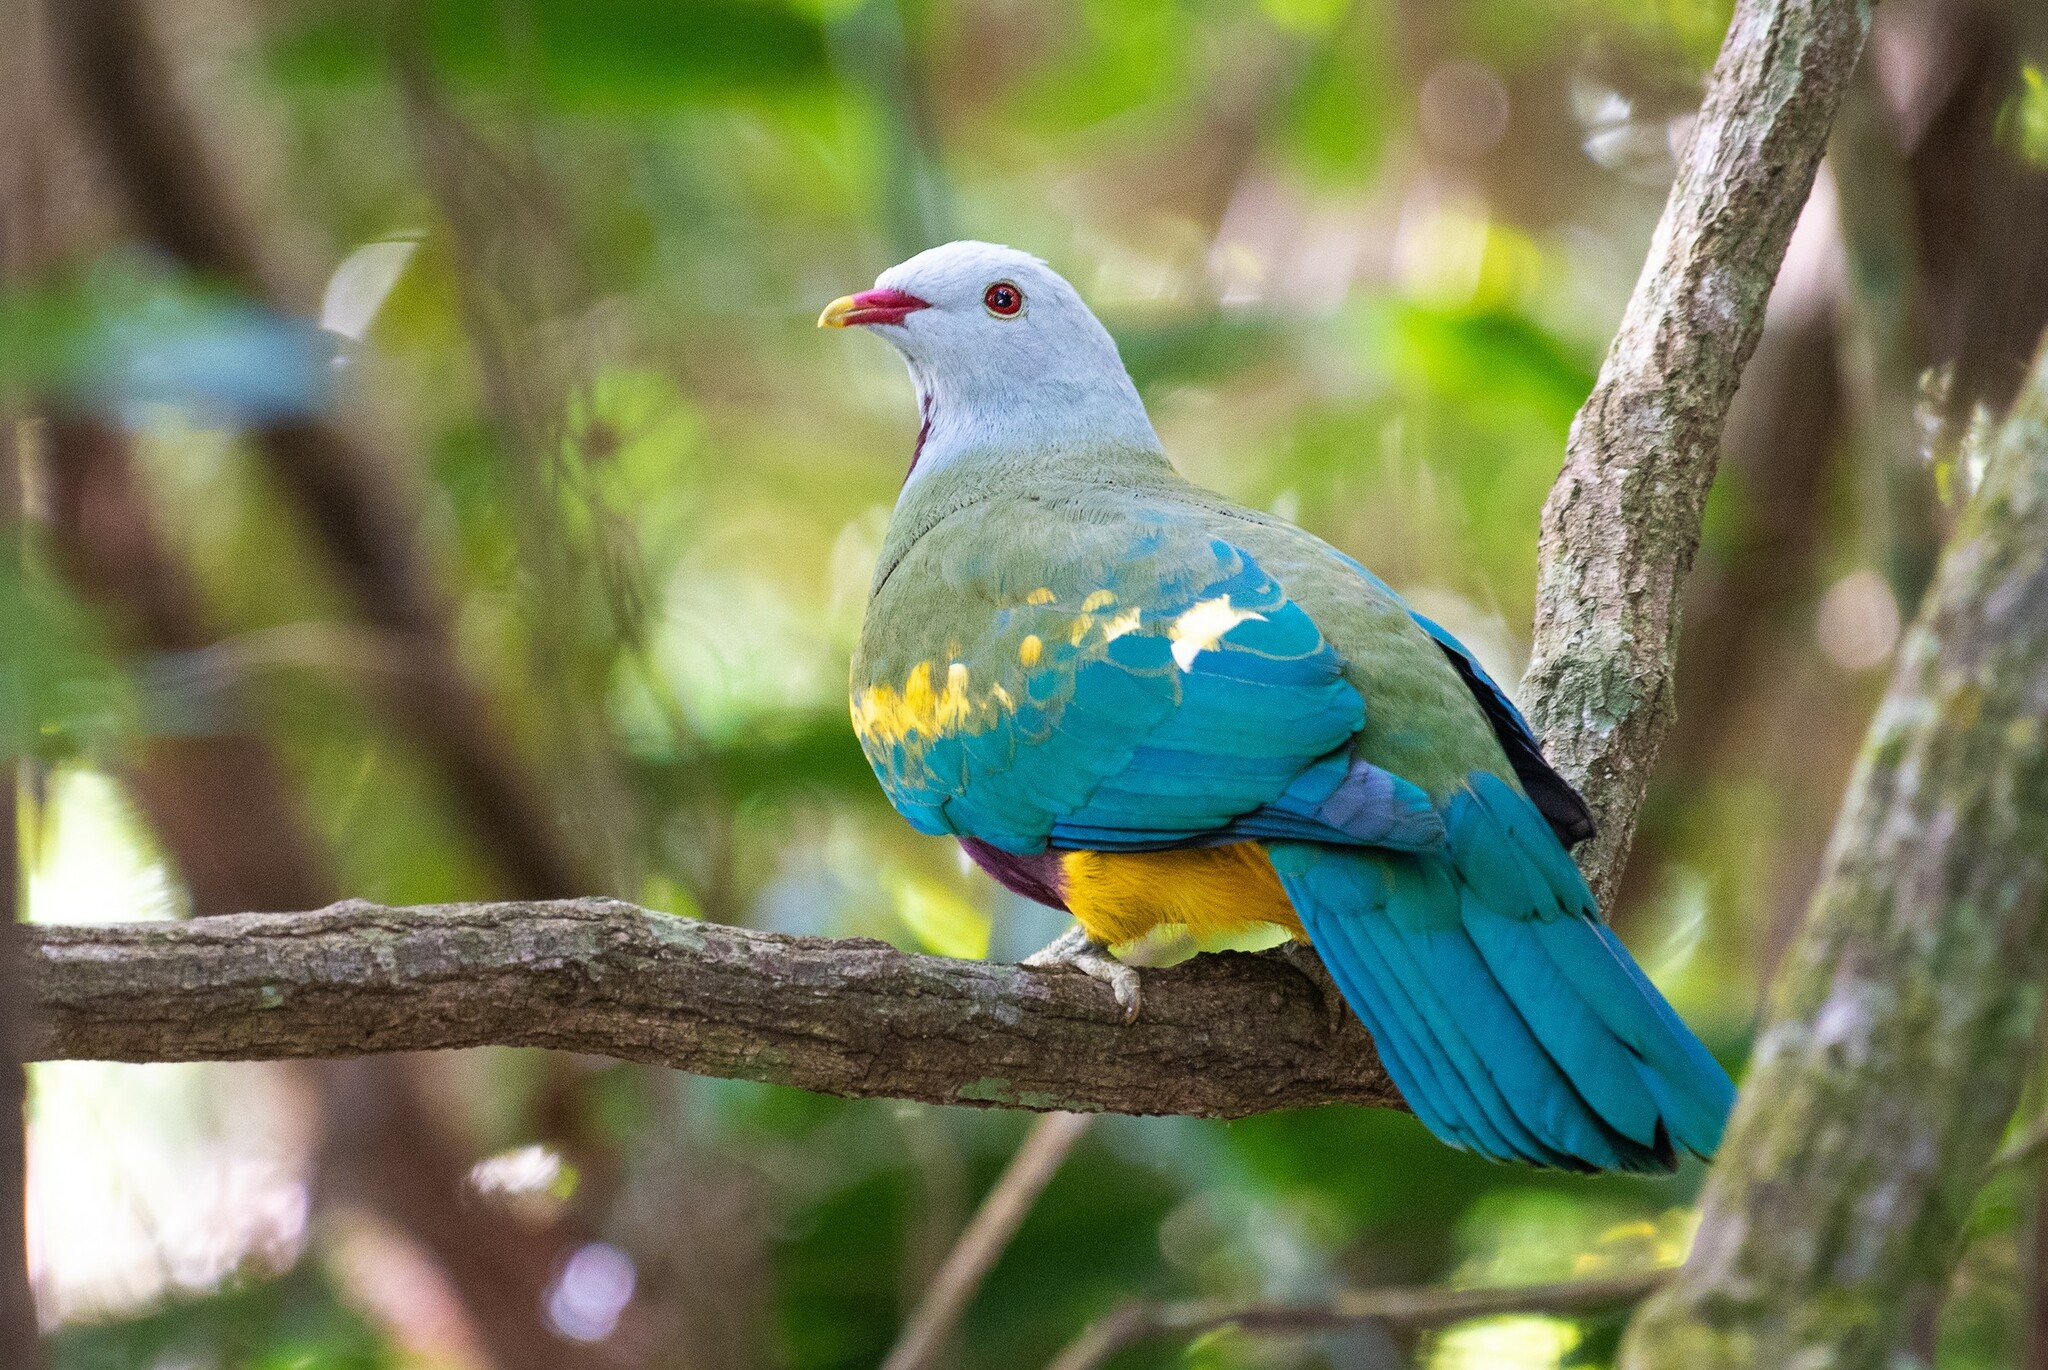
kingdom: Animalia
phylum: Chordata
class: Aves
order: Columbiformes
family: Columbidae
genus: Ptilinopus
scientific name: Ptilinopus magnificus
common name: Wompoo fruit dove
